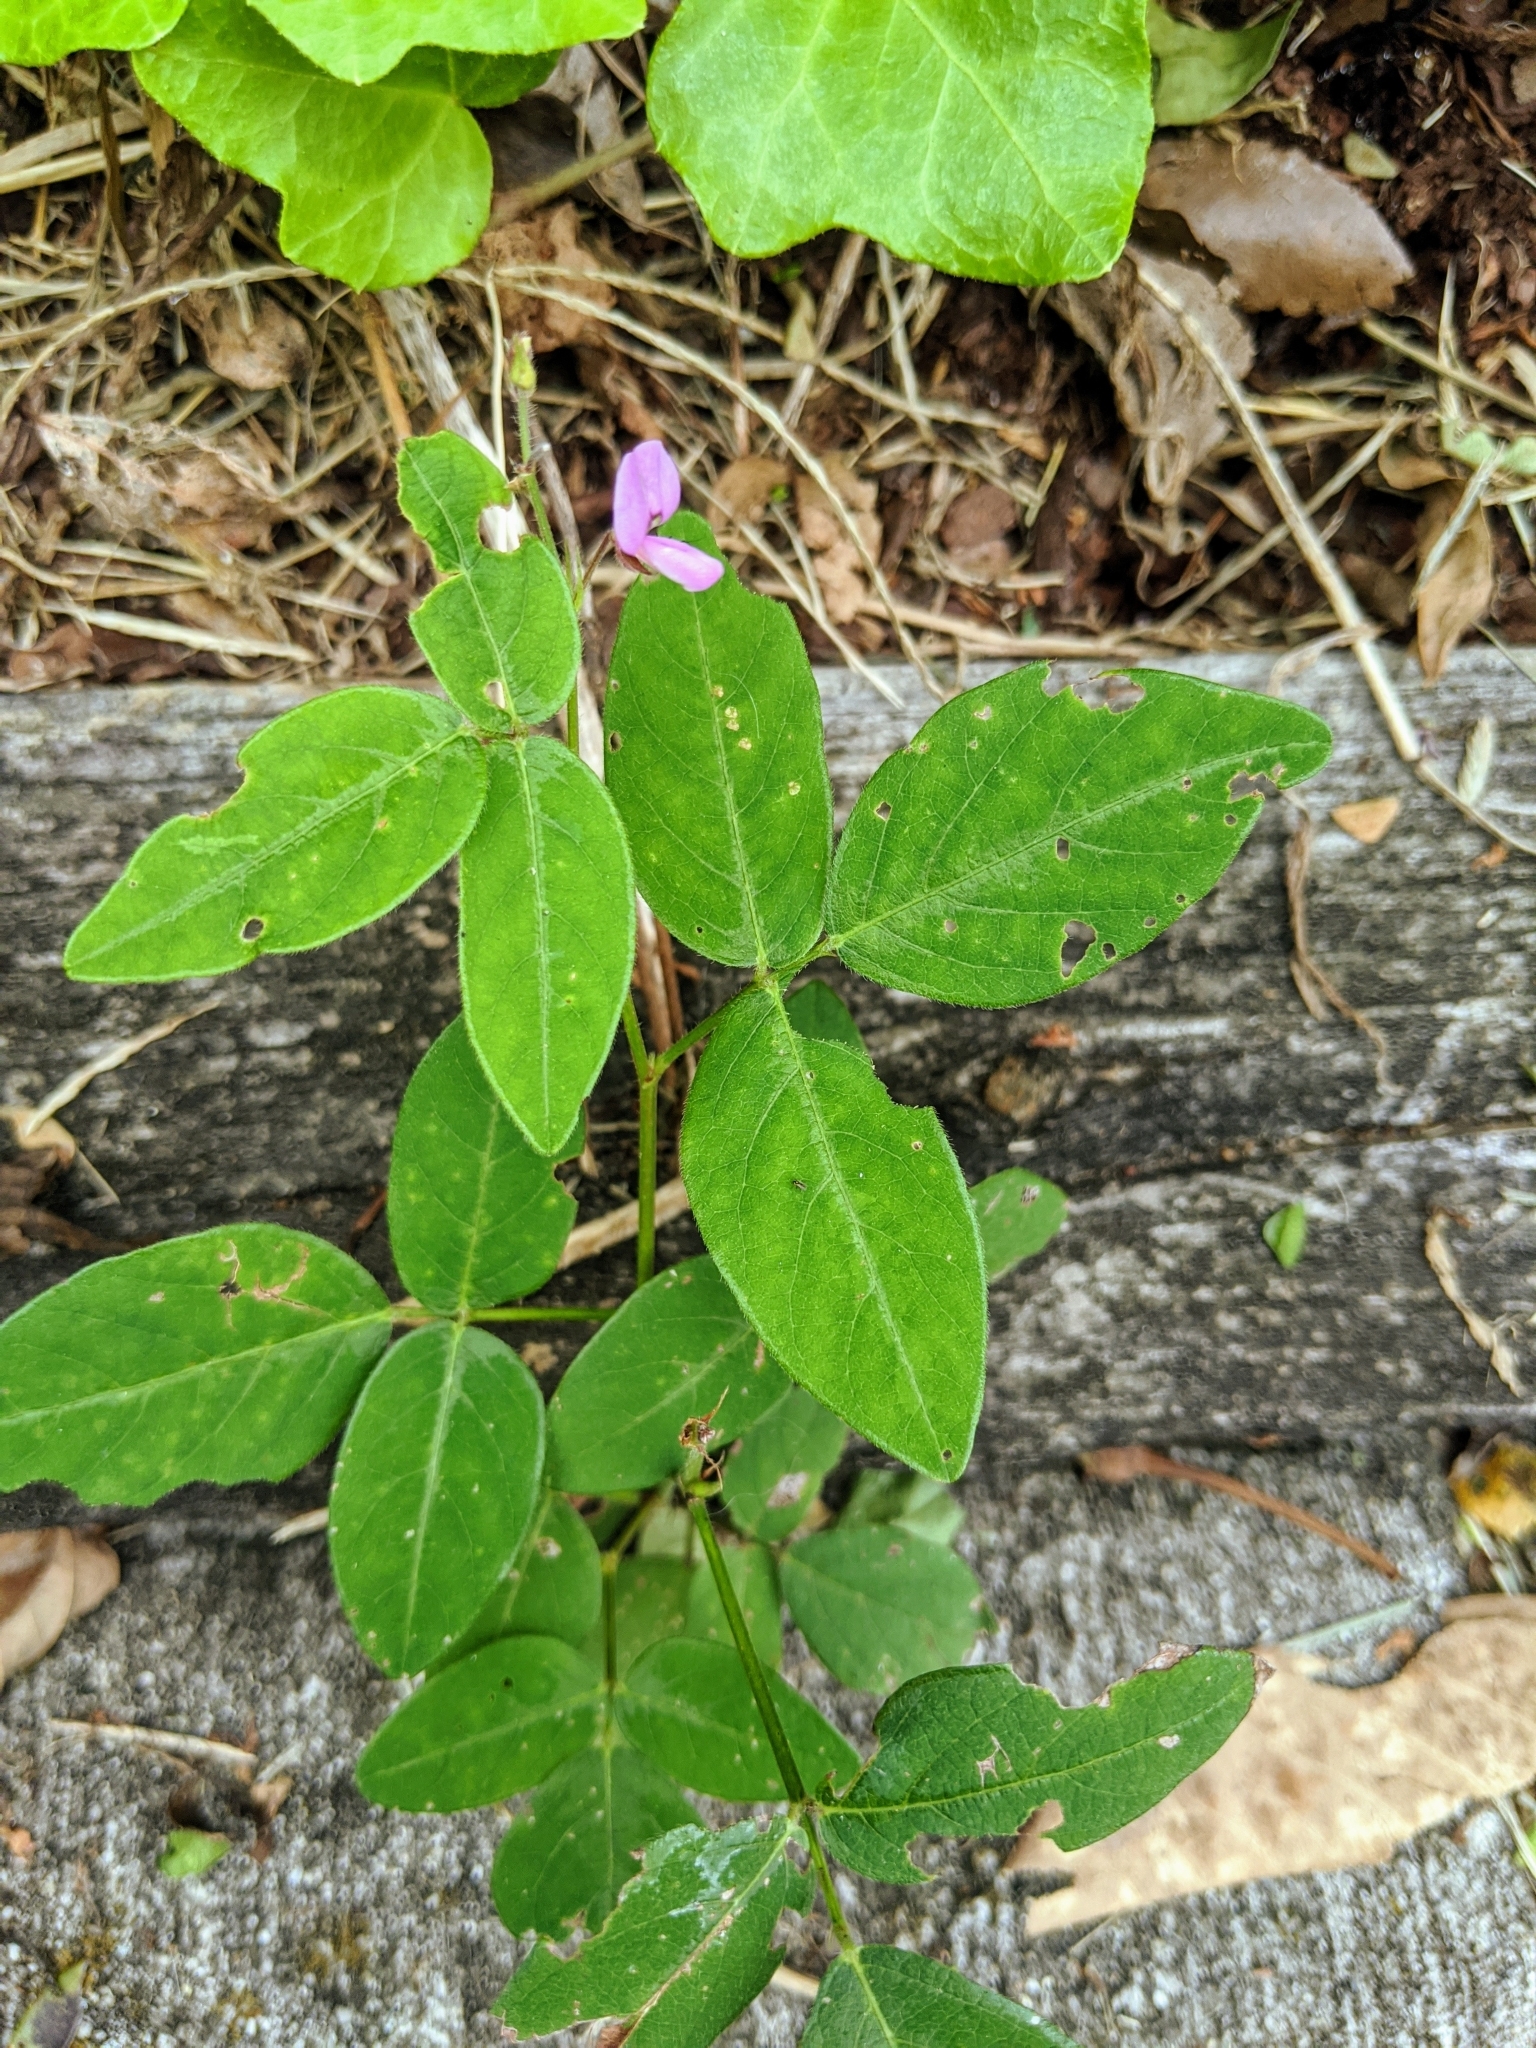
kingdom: Plantae
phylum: Tracheophyta
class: Magnoliopsida
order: Fabales
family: Fabaceae
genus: Desmodium
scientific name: Desmodium paniculatum
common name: Panicled tick-clover
